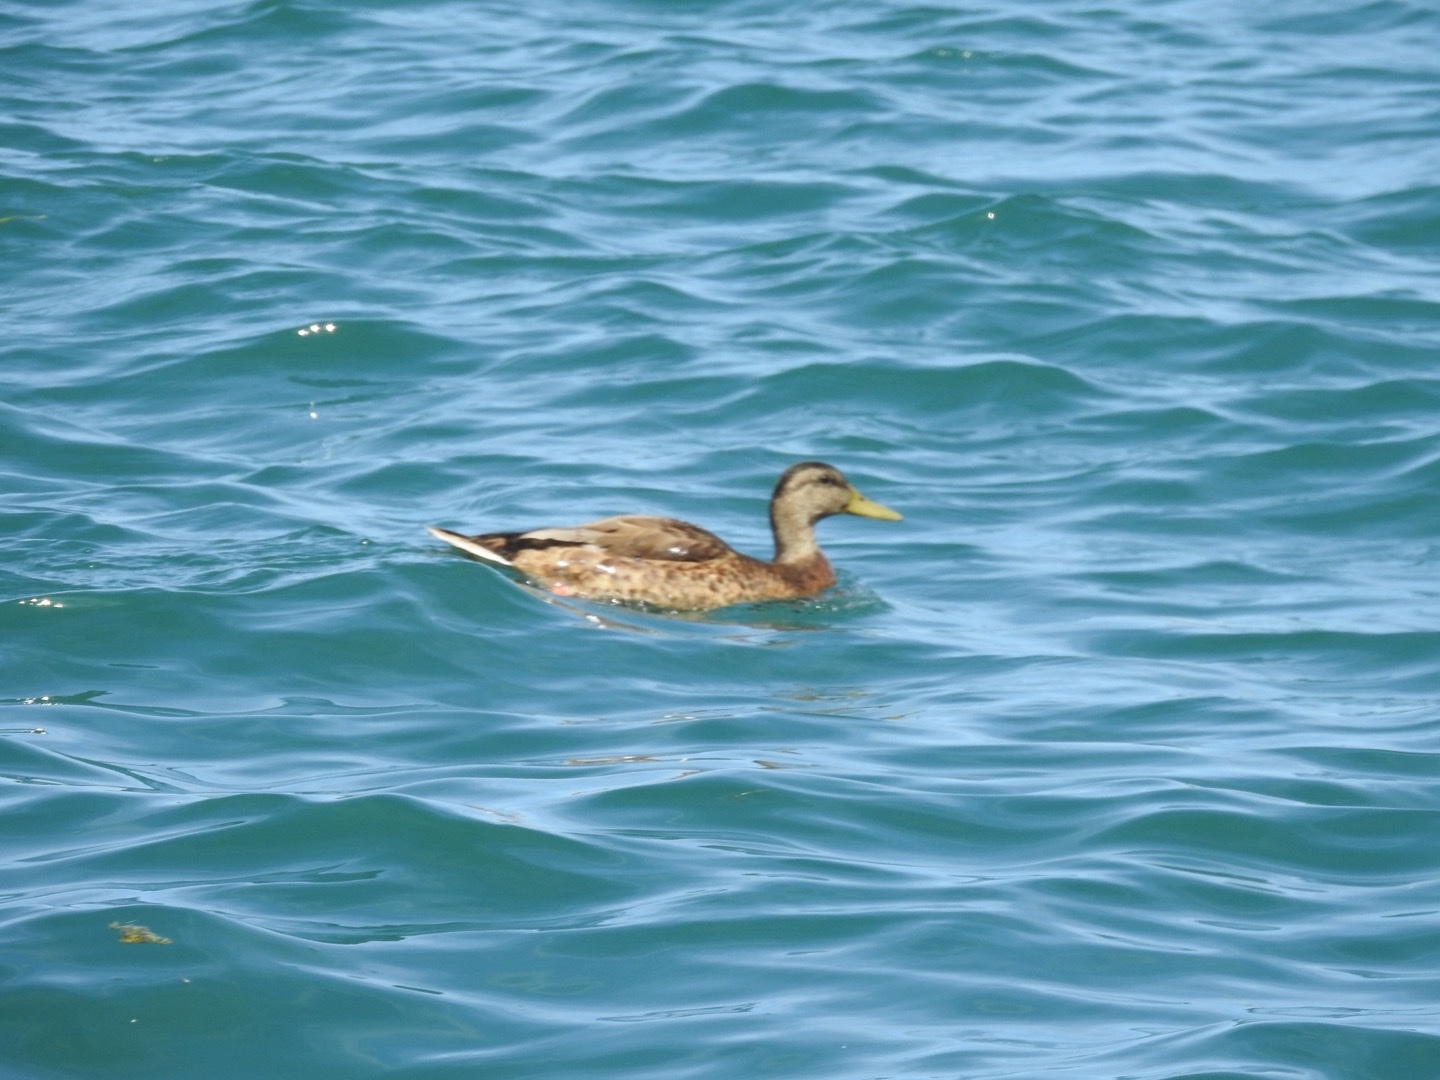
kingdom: Animalia
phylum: Chordata
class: Aves
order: Anseriformes
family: Anatidae
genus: Anas
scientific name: Anas platyrhynchos
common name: Mallard
